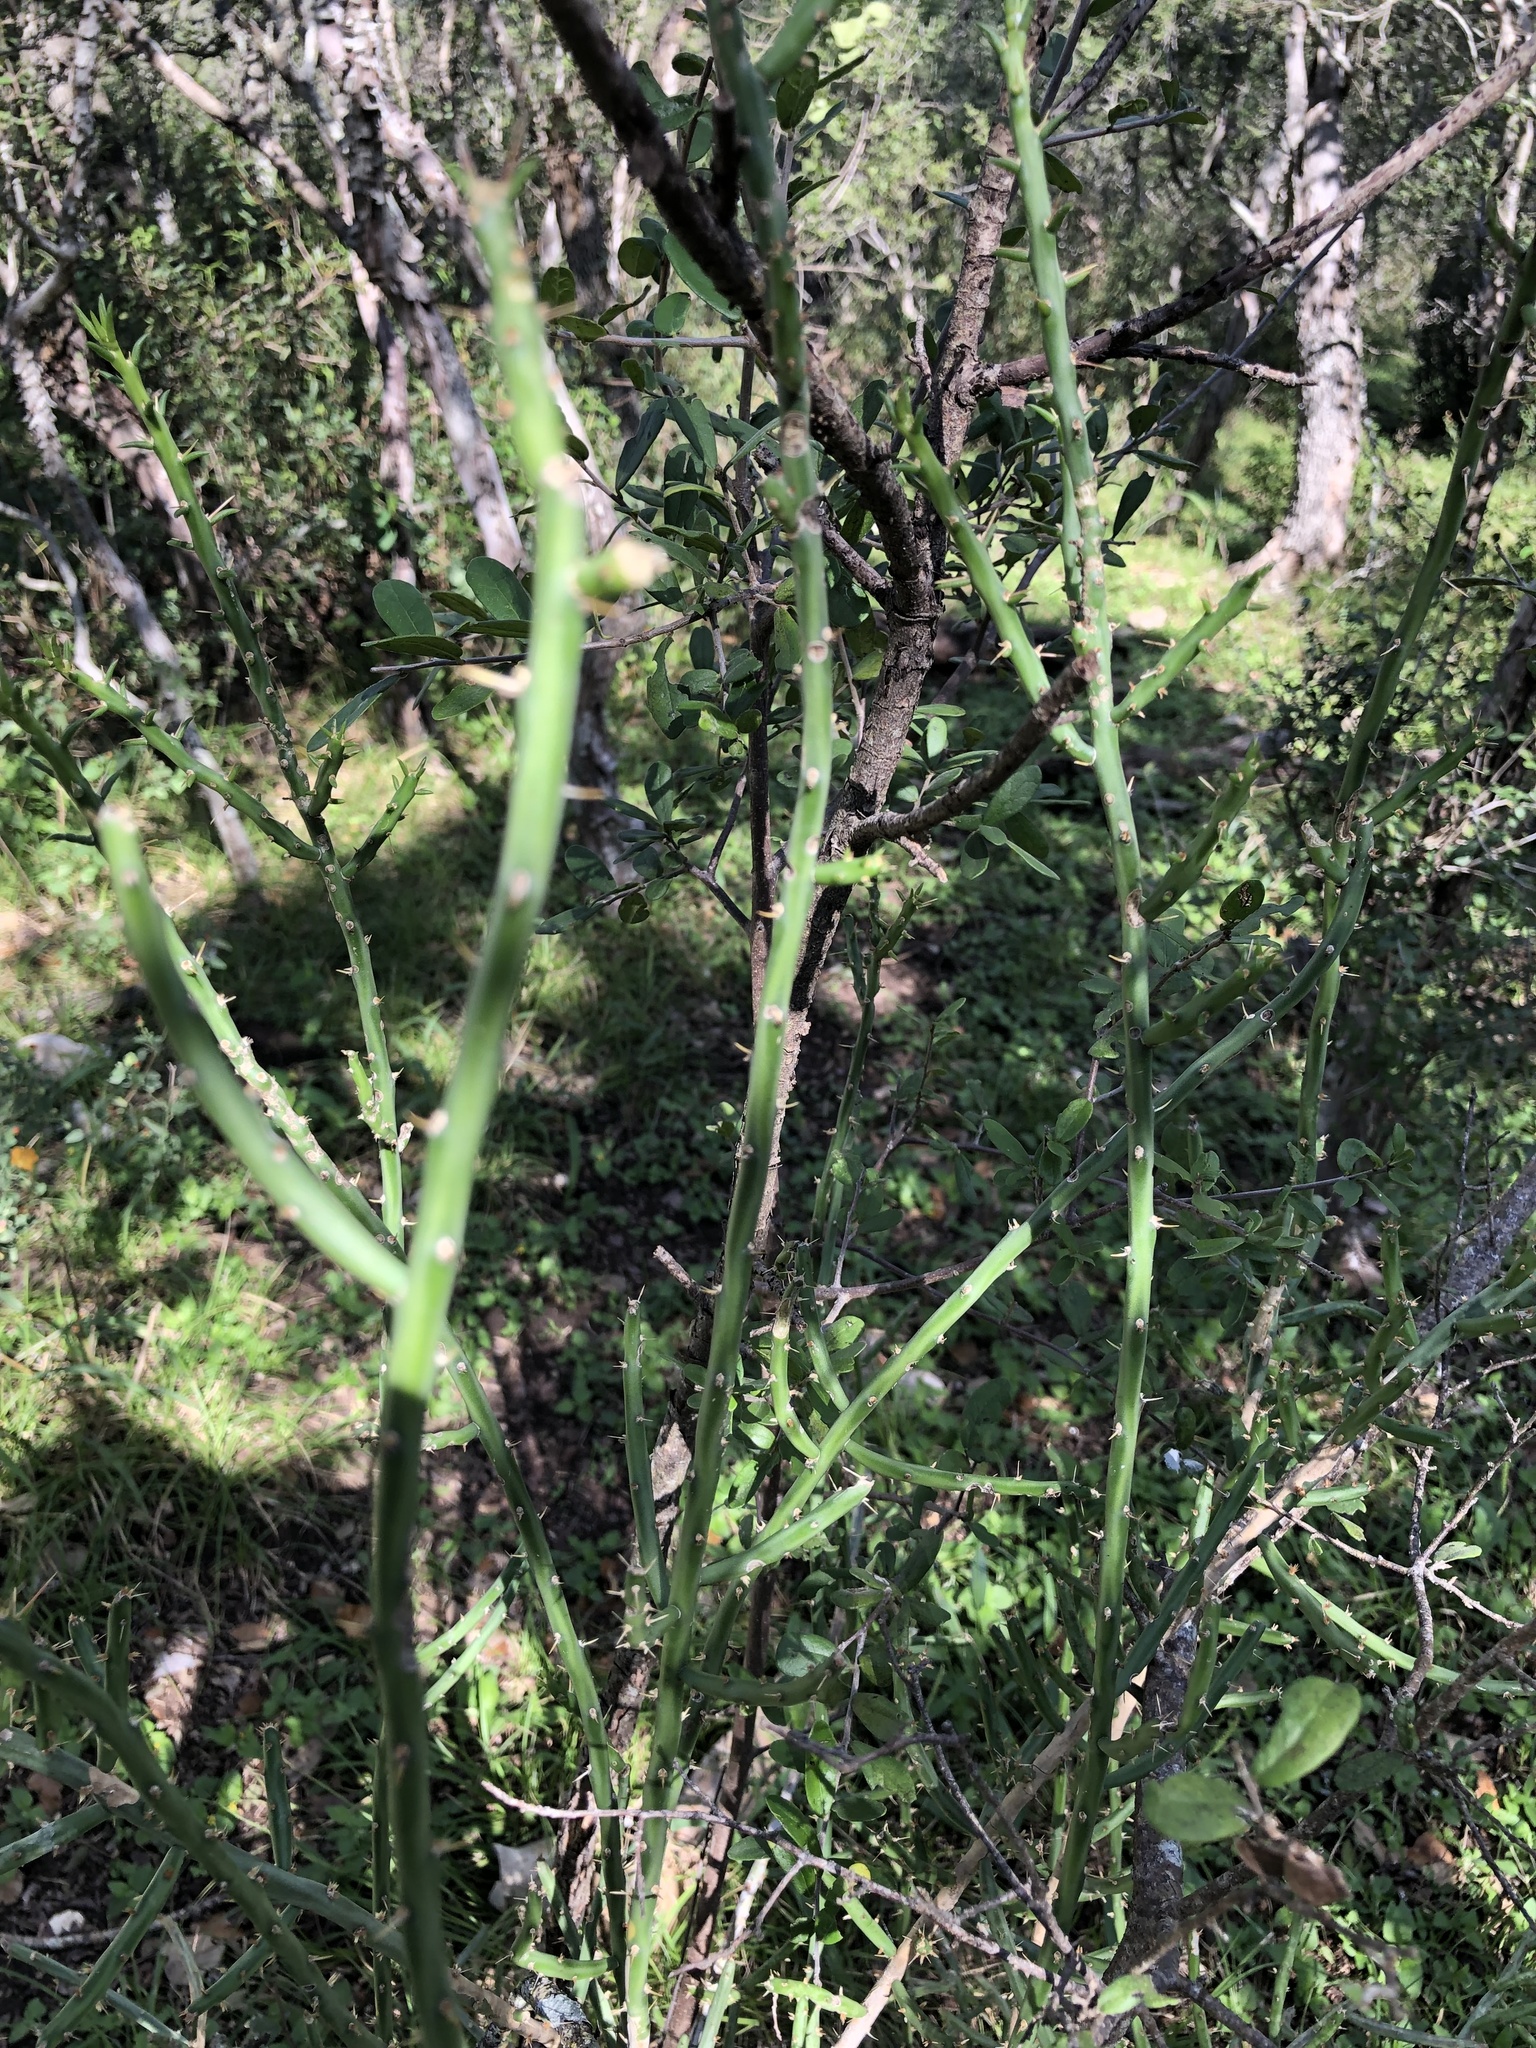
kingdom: Plantae
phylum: Tracheophyta
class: Magnoliopsida
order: Caryophyllales
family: Cactaceae
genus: Cylindropuntia
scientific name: Cylindropuntia leptocaulis
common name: Christmas cactus
